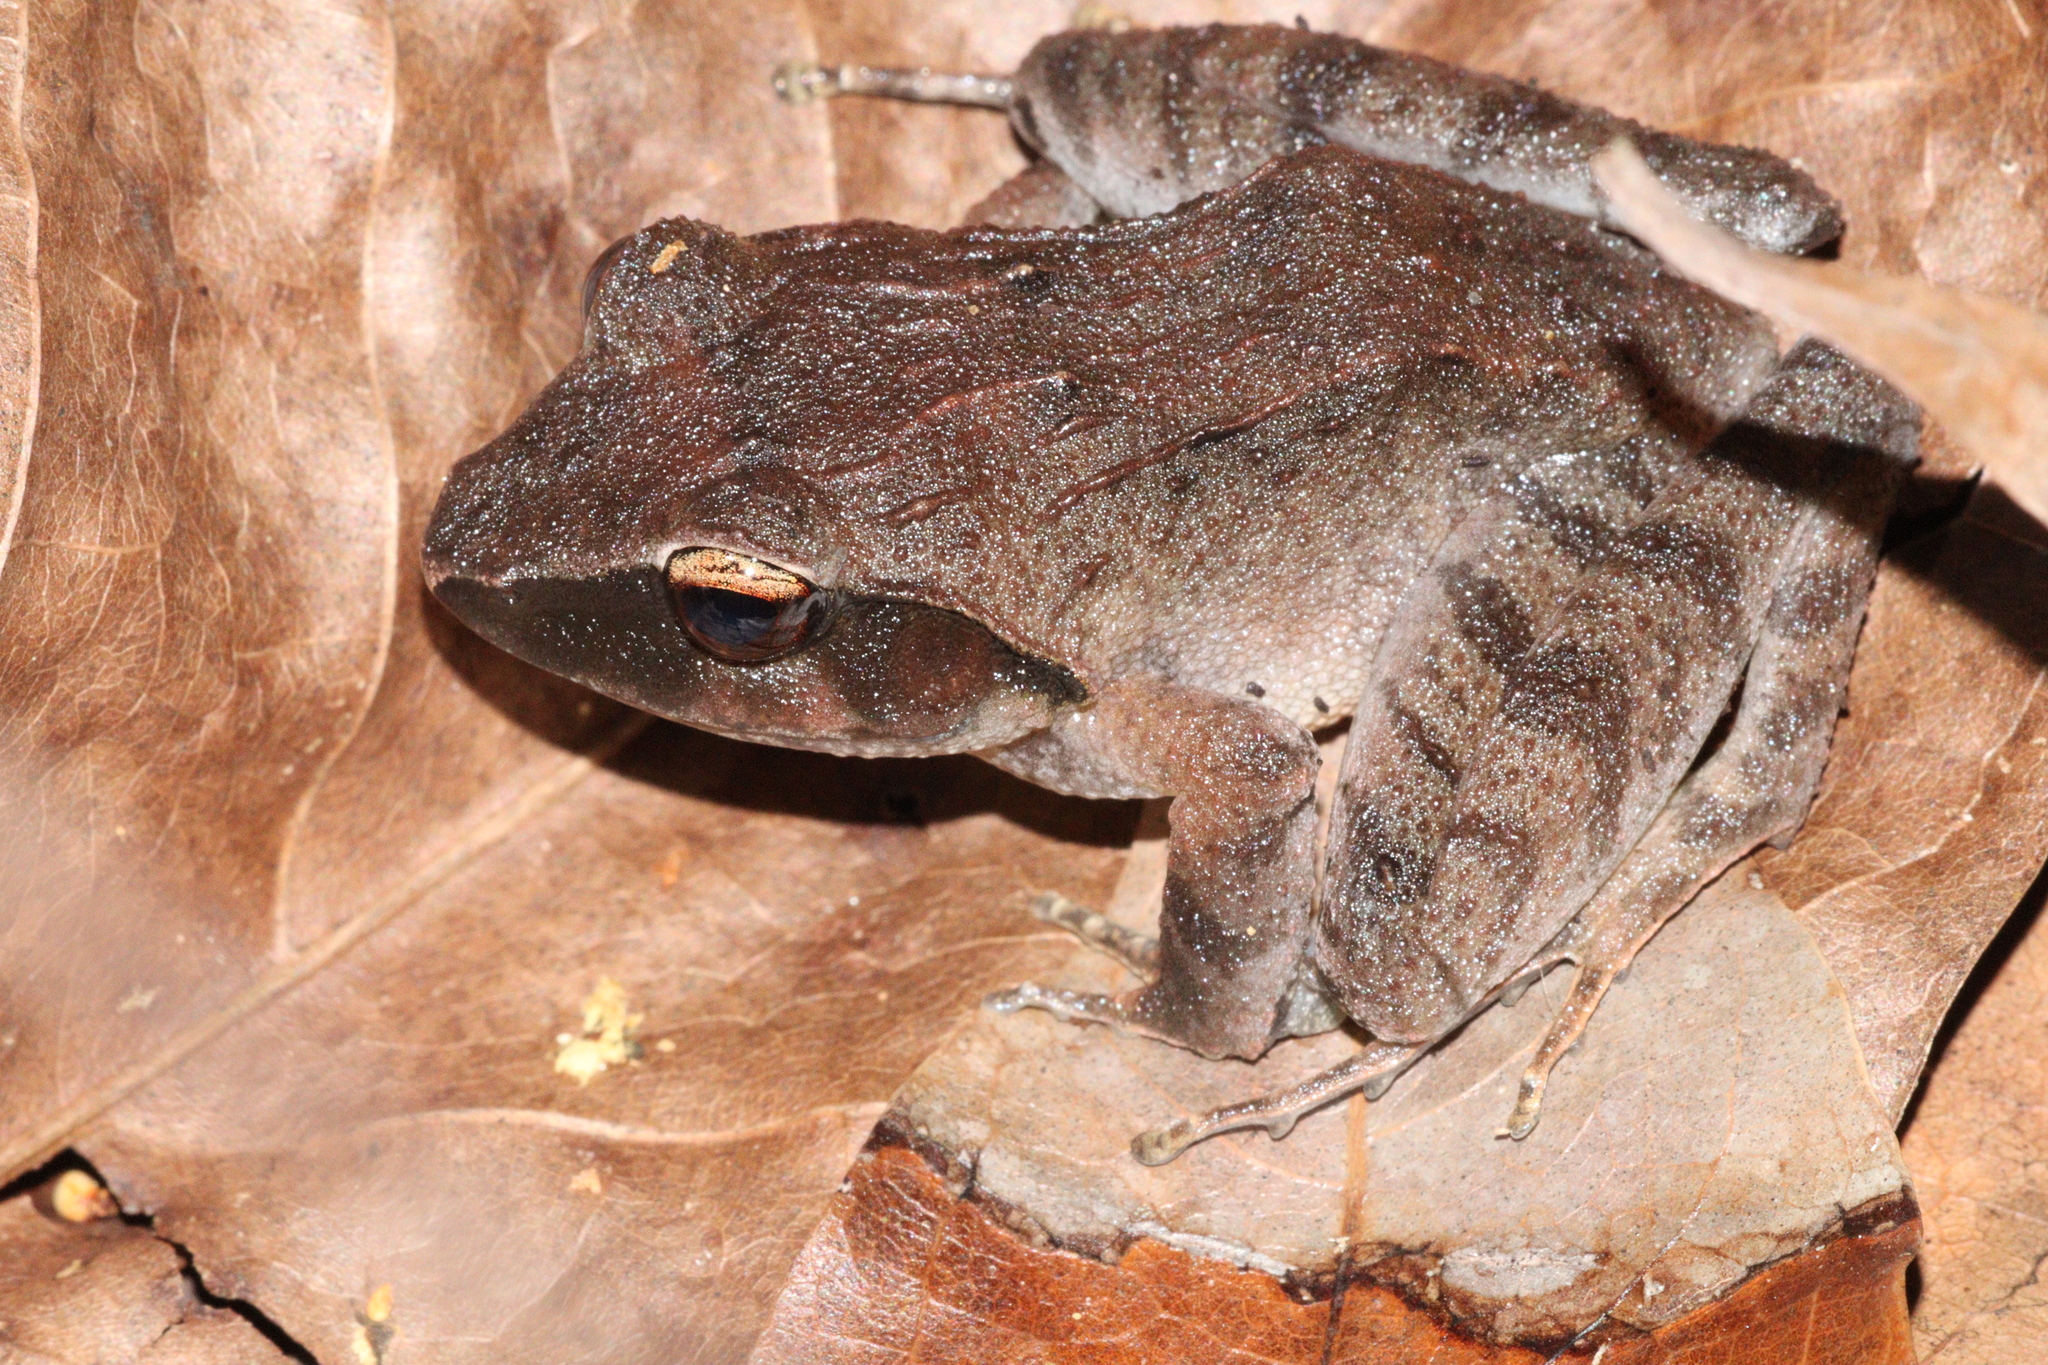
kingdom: Animalia
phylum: Chordata
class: Amphibia
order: Anura
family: Ceratobatrachidae
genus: Platymantis
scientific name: Platymantis corrugatus
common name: Rough-back forest frog
